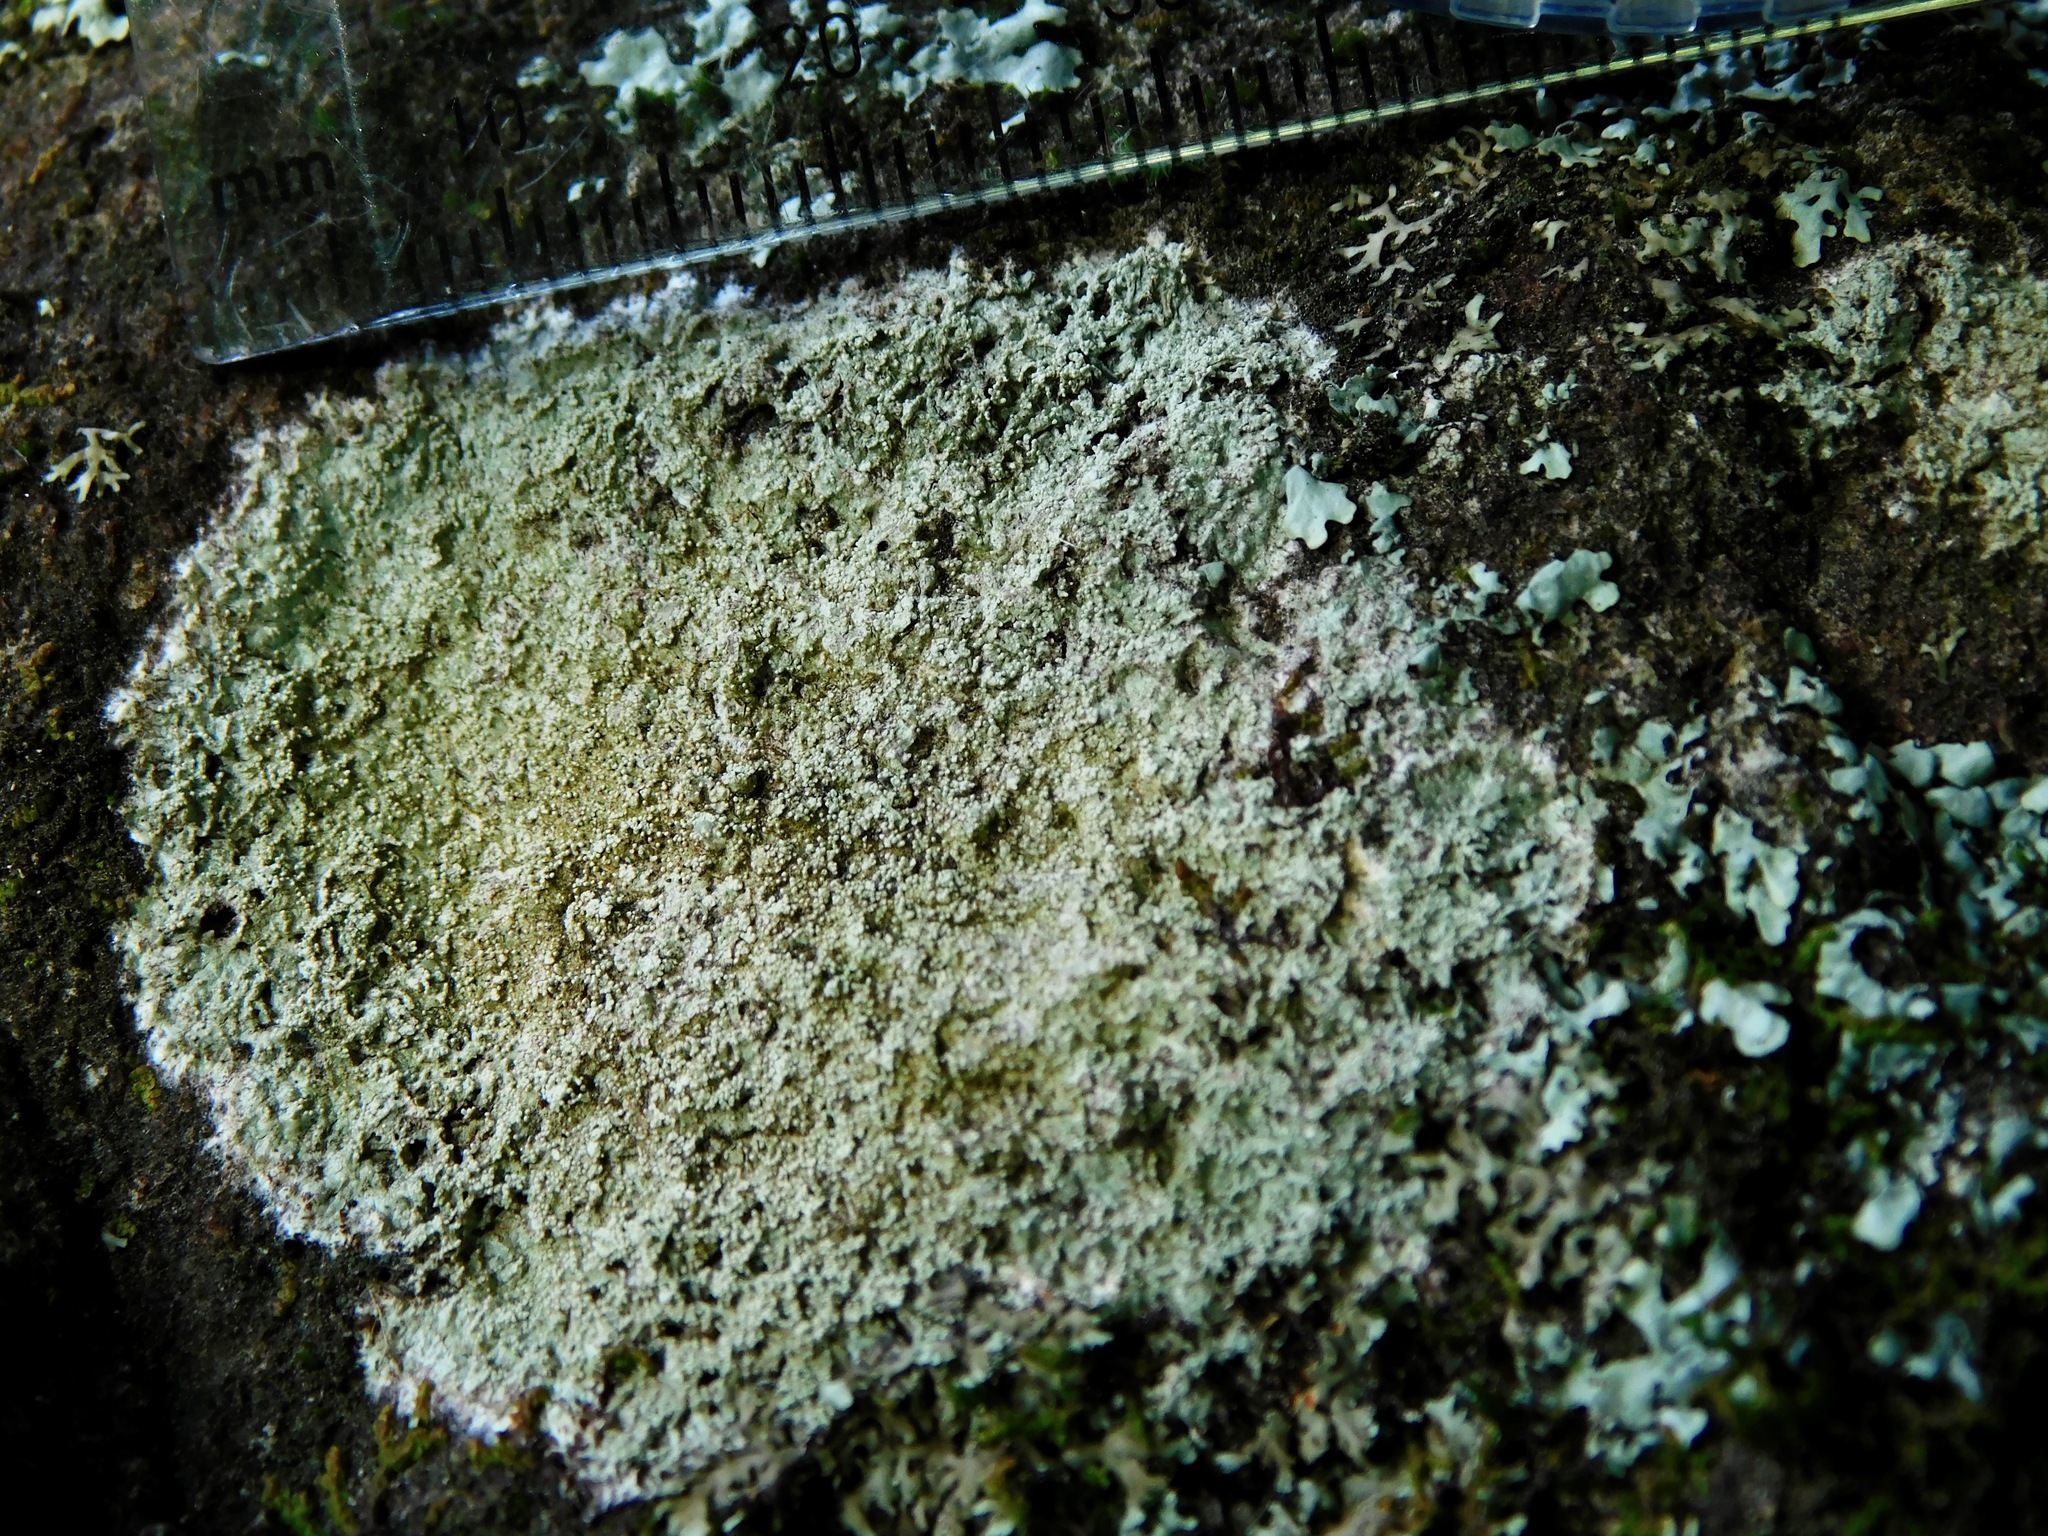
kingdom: Fungi
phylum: Ascomycota
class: Lecanoromycetes
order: Pertusariales
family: Ochrolechiaceae
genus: Ochrolechia
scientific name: Ochrolechia yasudae
